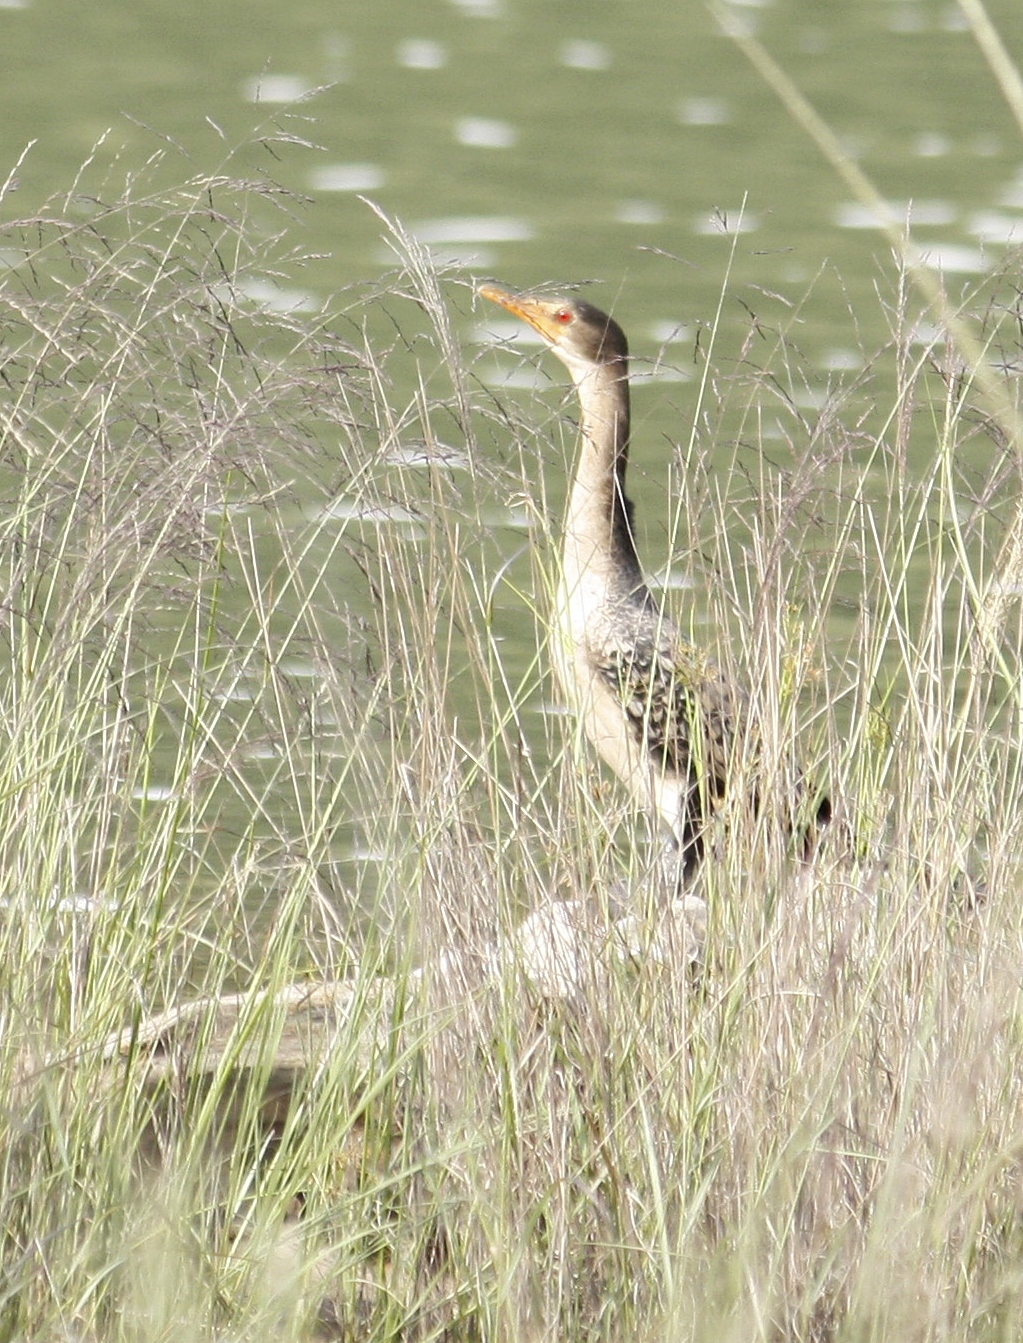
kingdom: Animalia
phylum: Chordata
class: Aves
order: Suliformes
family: Phalacrocoracidae
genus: Microcarbo
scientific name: Microcarbo africanus
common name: Long-tailed cormorant
